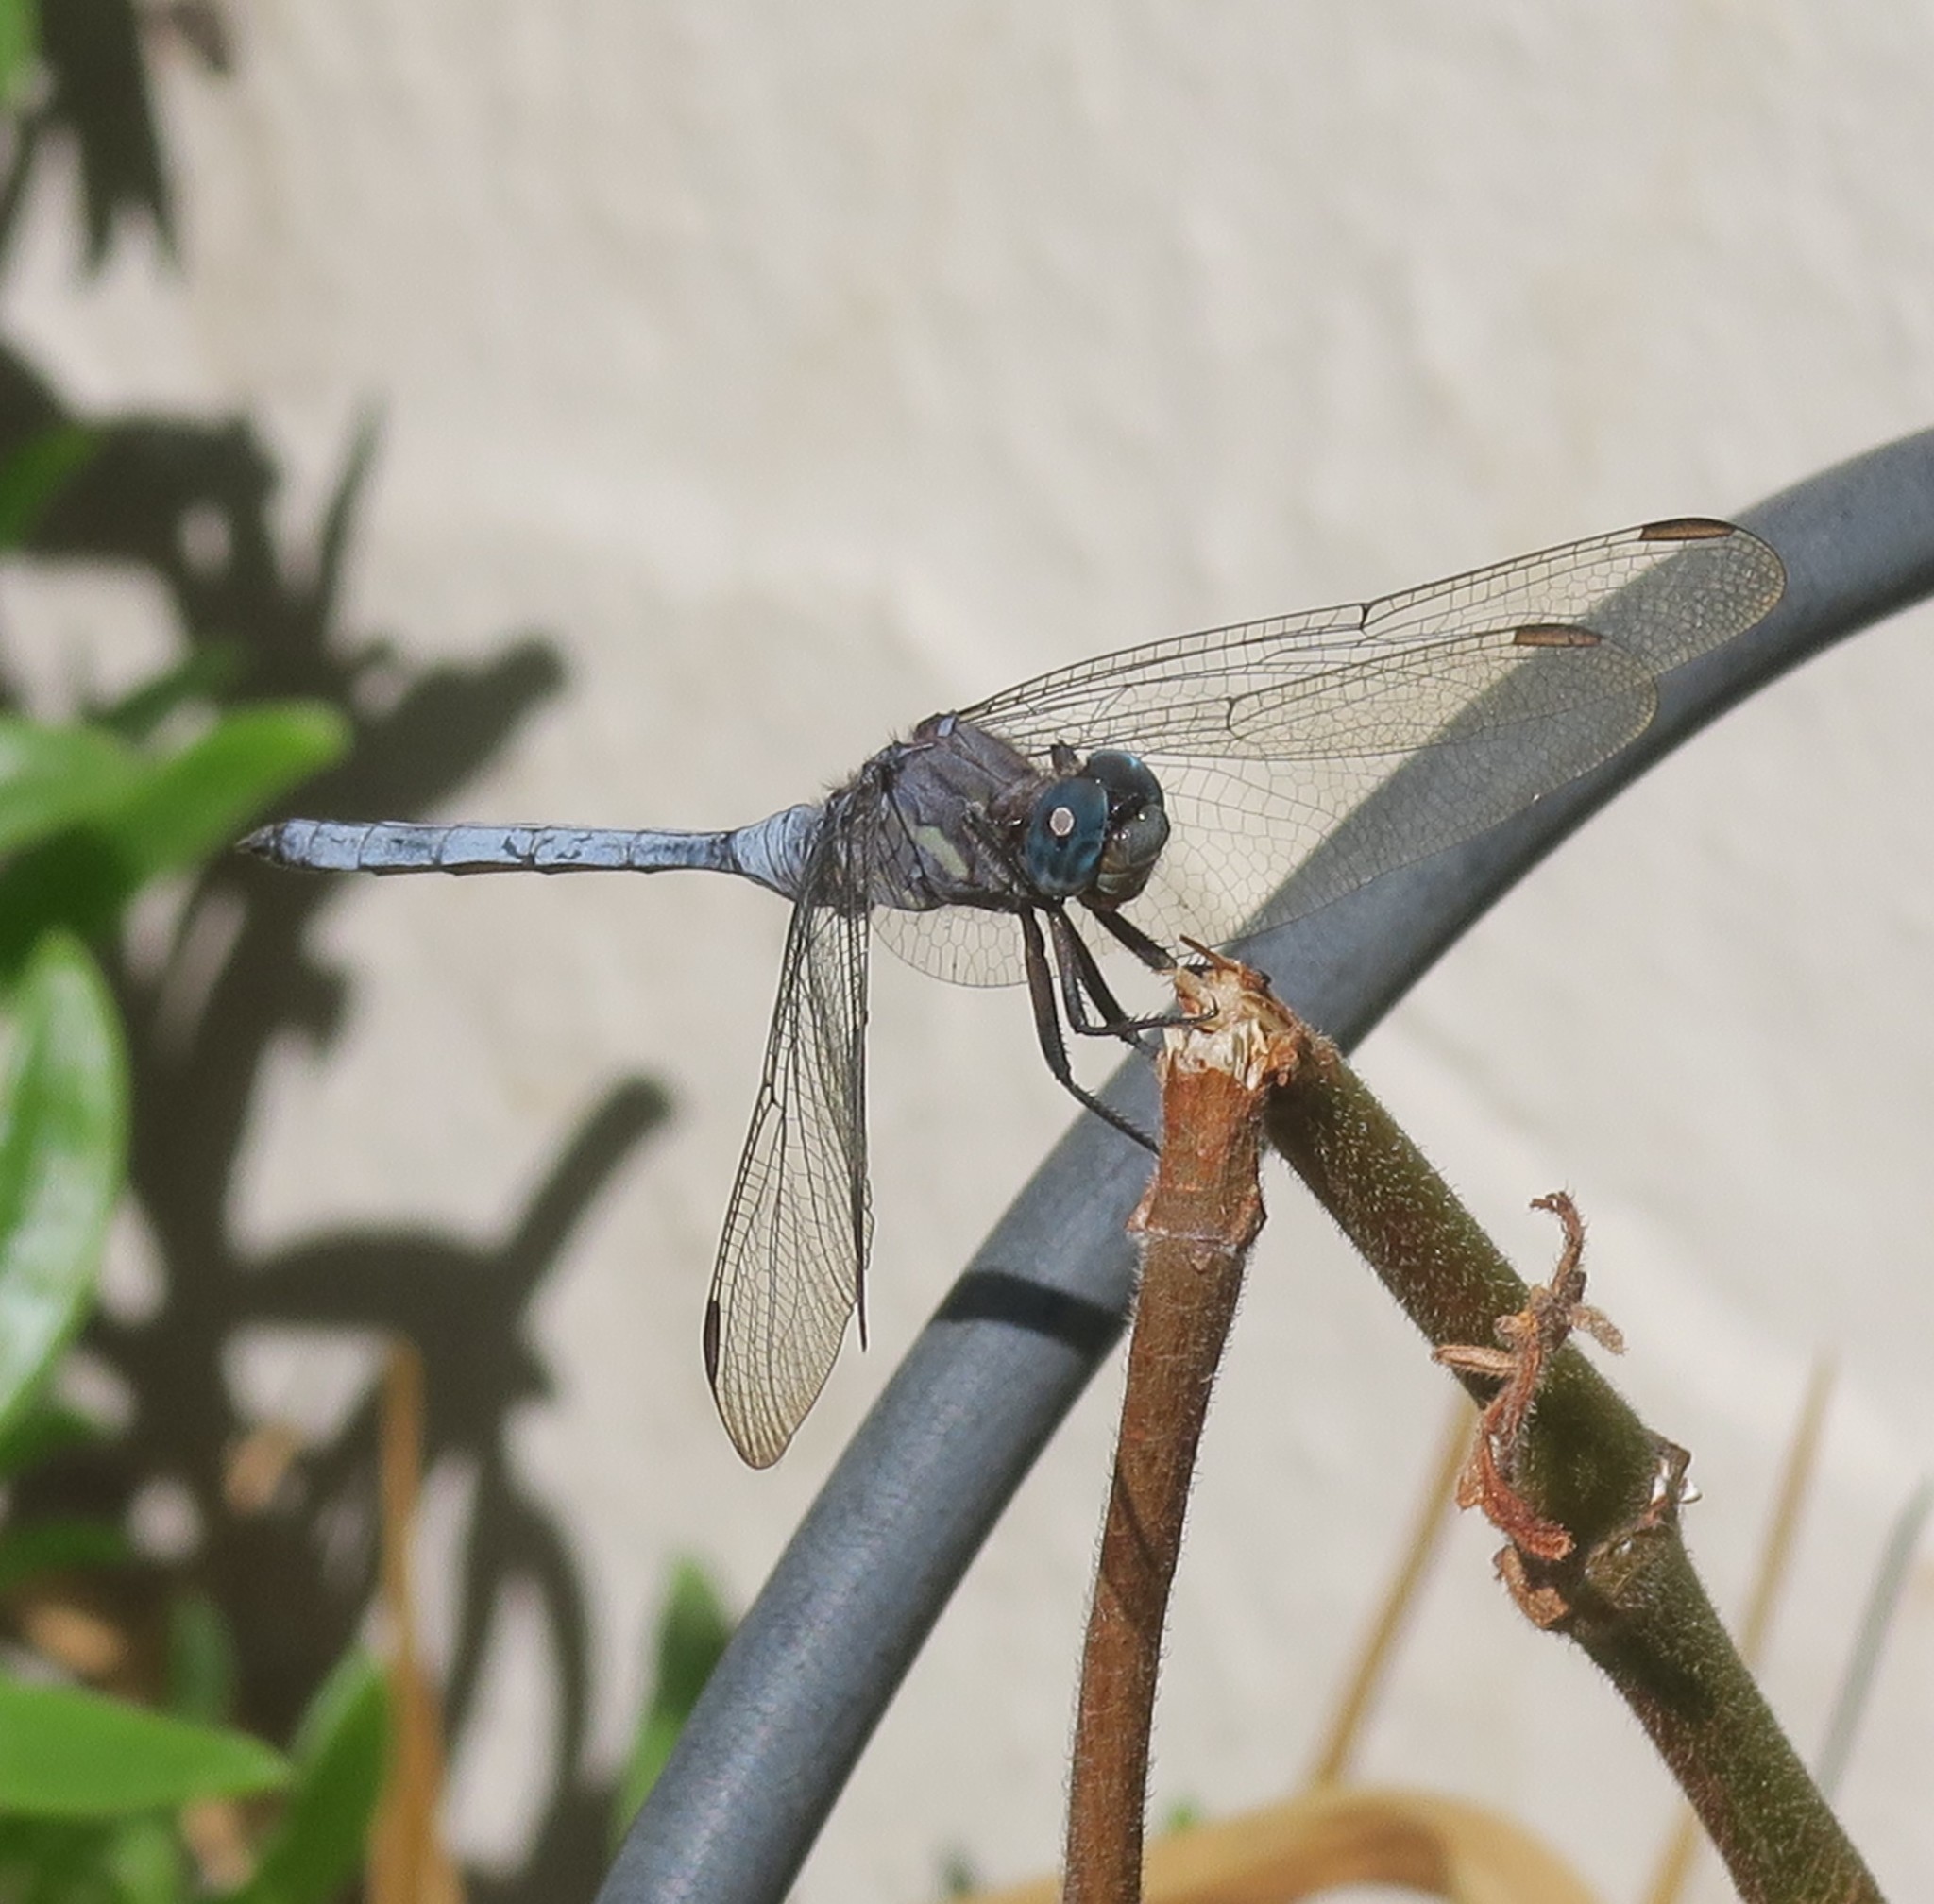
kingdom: Animalia
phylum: Arthropoda
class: Insecta
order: Odonata
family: Libellulidae
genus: Orthetrum
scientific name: Orthetrum julia
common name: Julia skimmer
